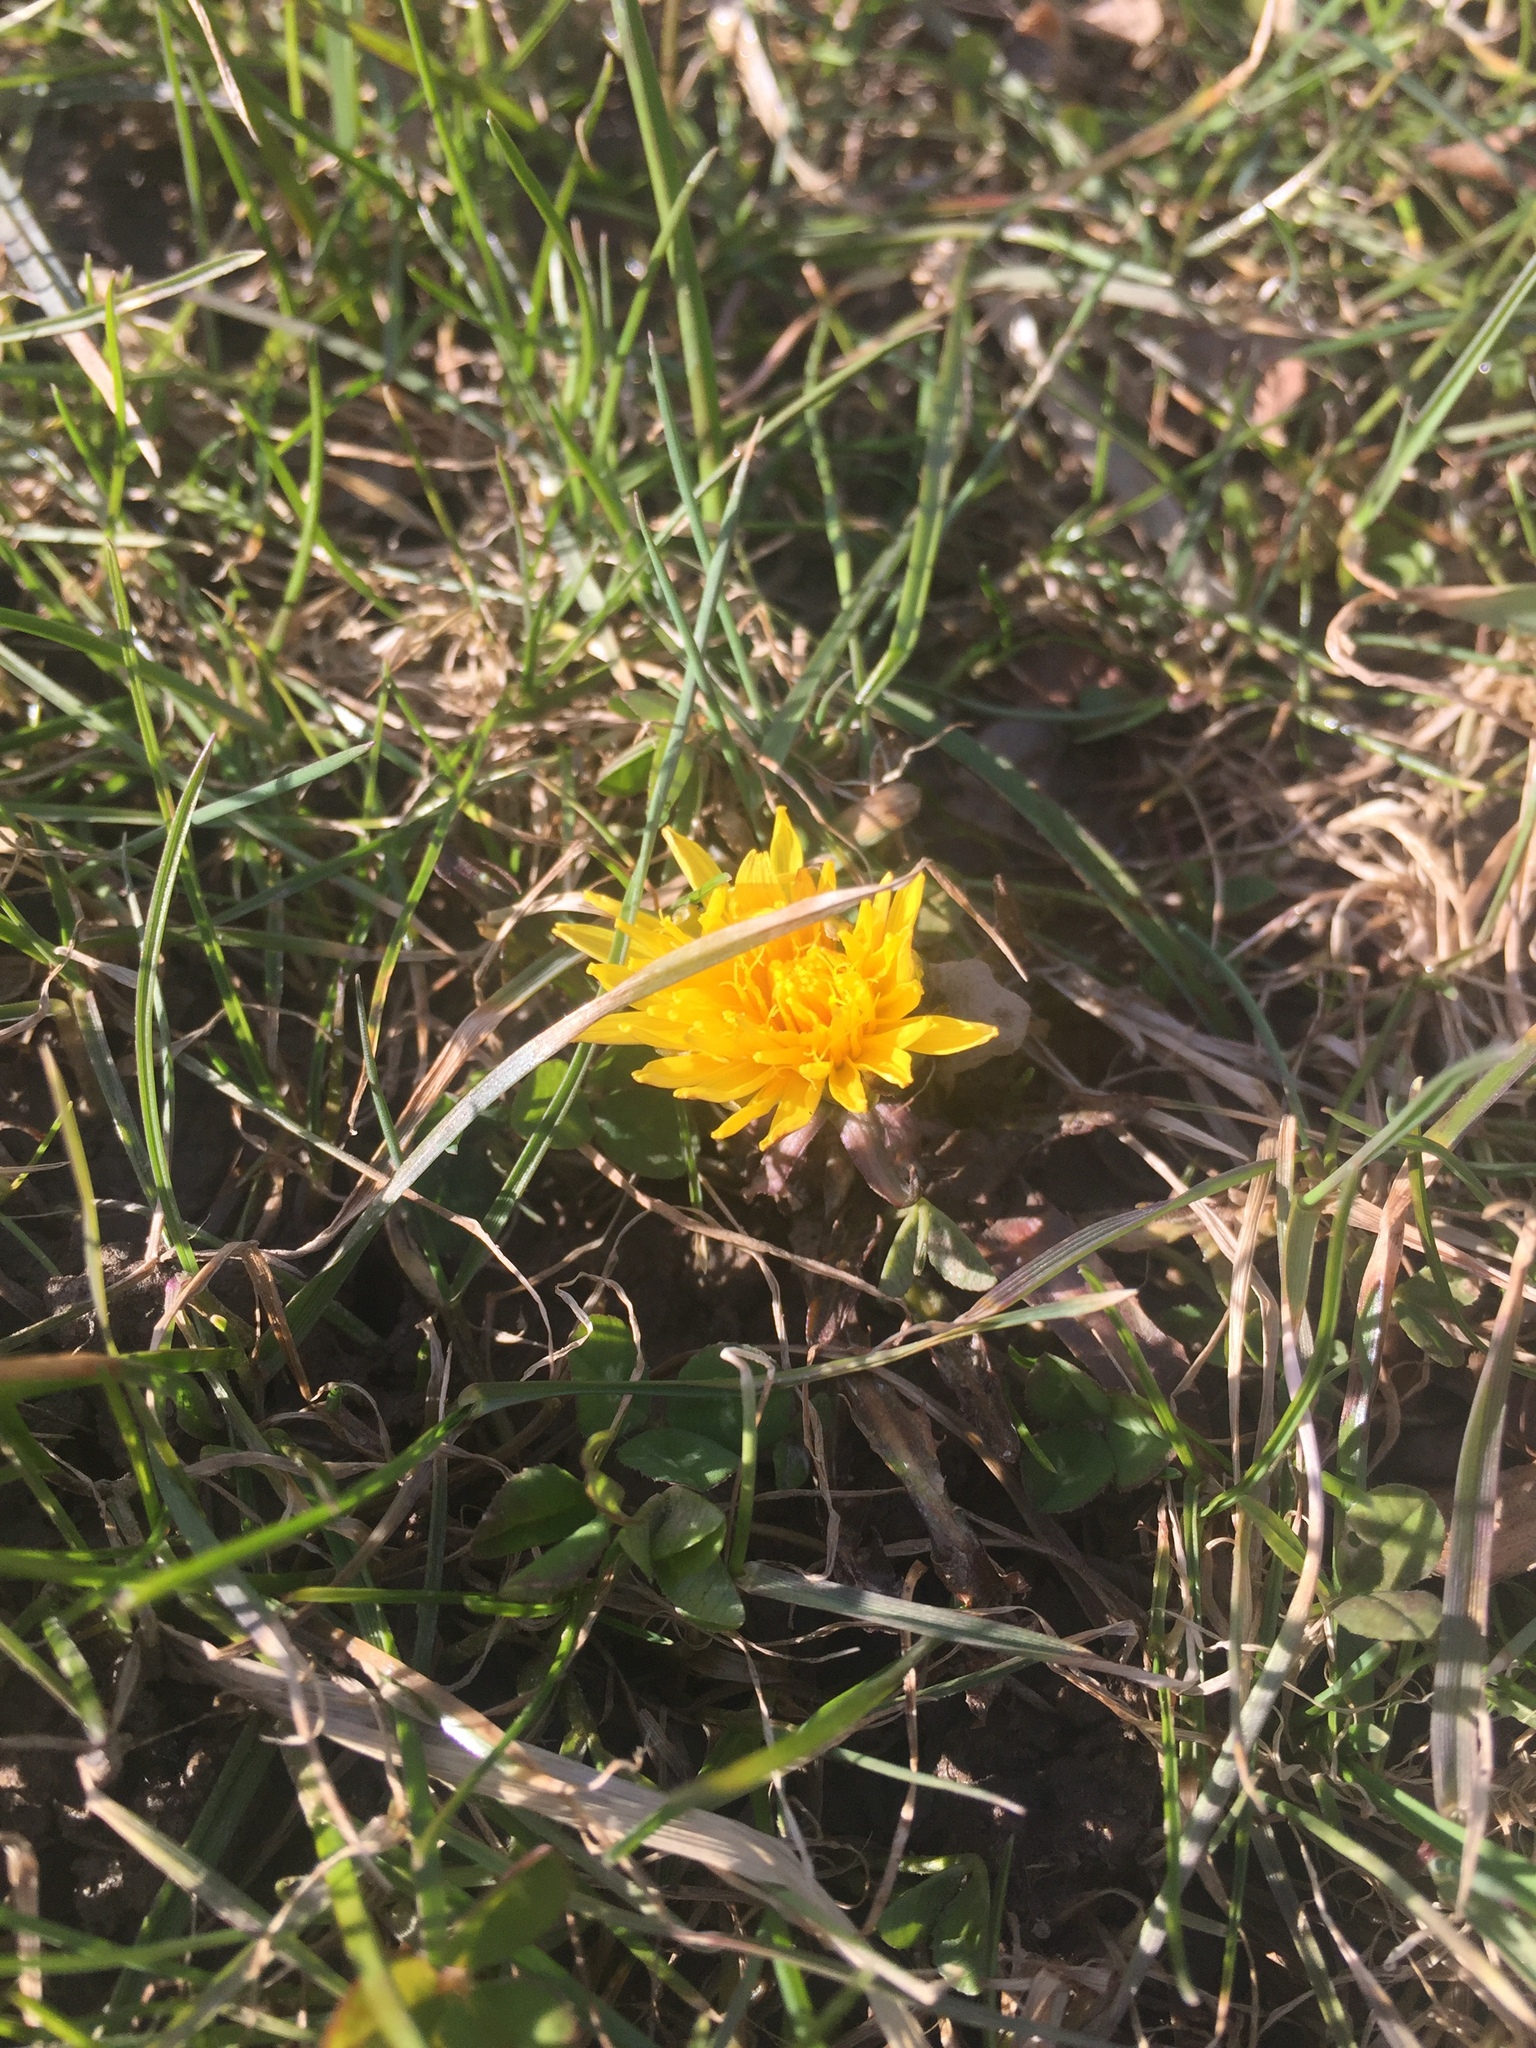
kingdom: Plantae
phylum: Tracheophyta
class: Magnoliopsida
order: Asterales
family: Asteraceae
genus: Taraxacum
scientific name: Taraxacum officinale
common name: Common dandelion
